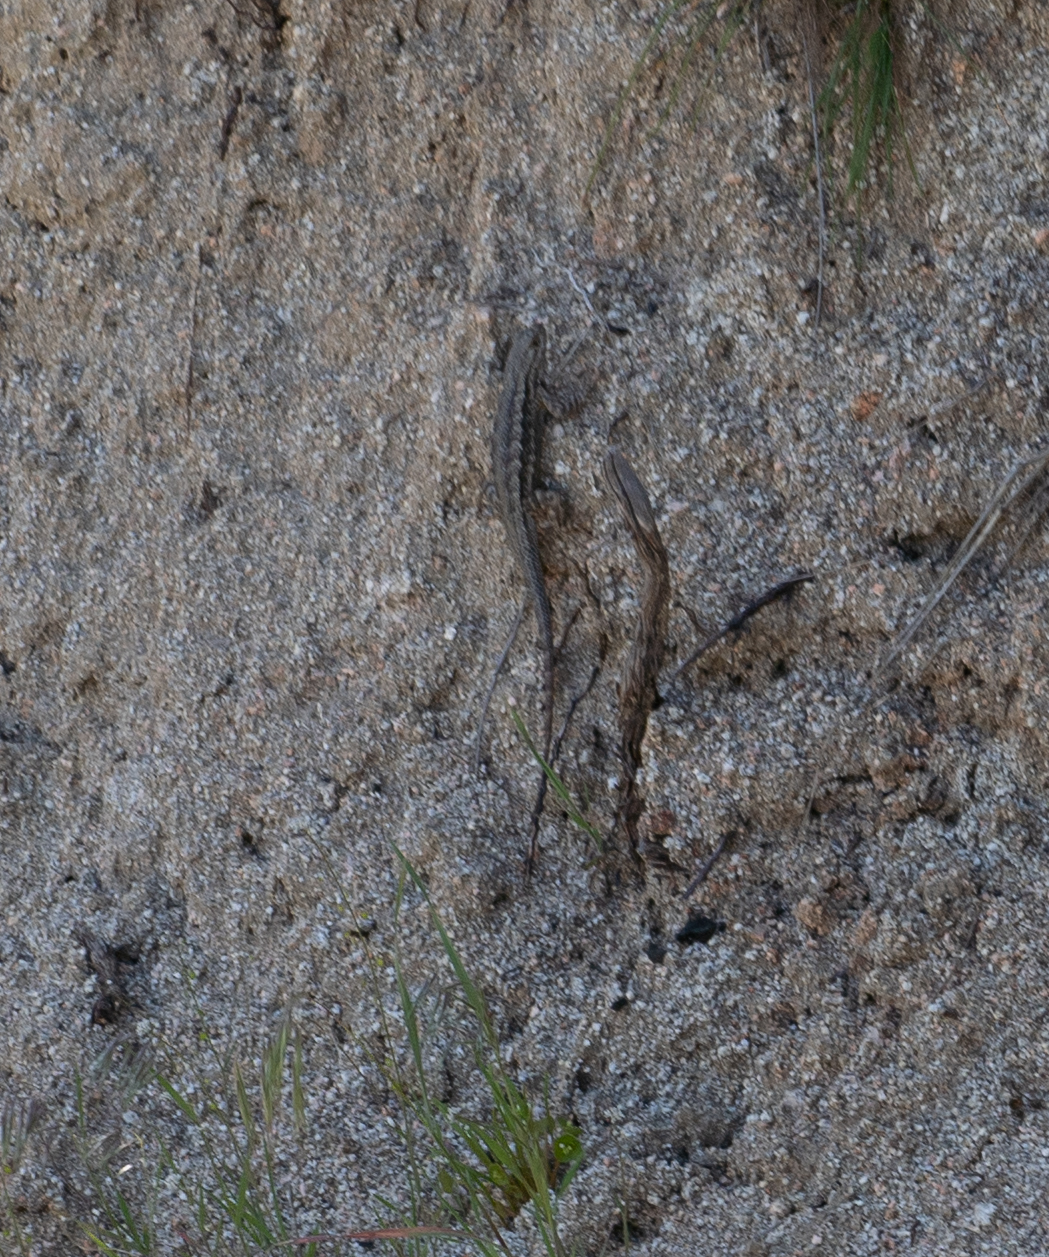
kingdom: Animalia
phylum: Chordata
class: Squamata
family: Phrynosomatidae
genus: Sceloporus
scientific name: Sceloporus occidentalis
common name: Western fence lizard
